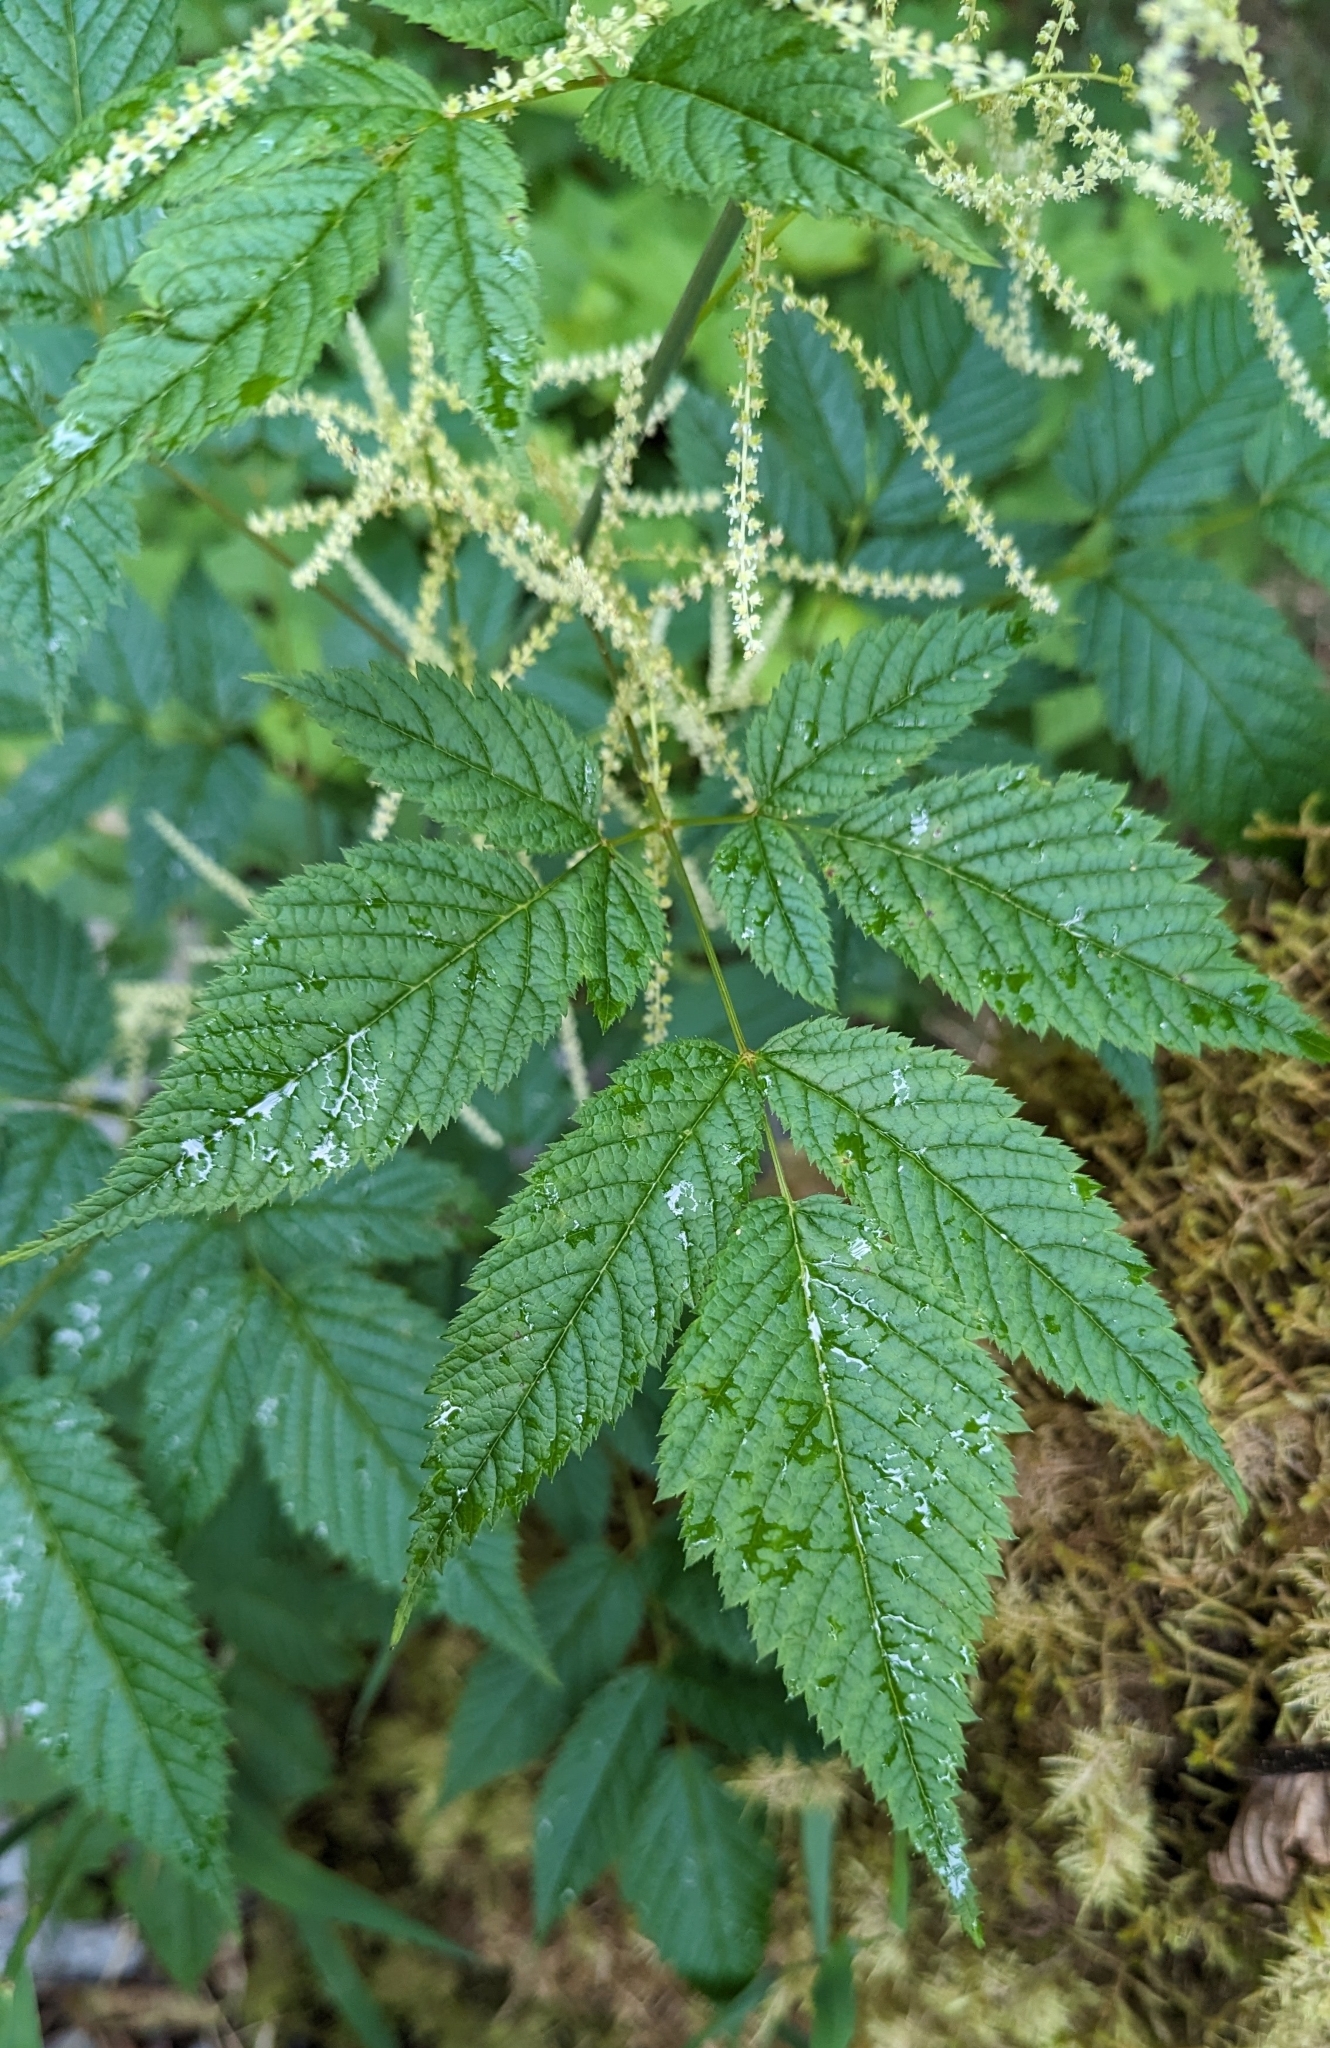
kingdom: Plantae
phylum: Tracheophyta
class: Magnoliopsida
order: Rosales
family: Rosaceae
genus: Aruncus
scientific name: Aruncus dioicus
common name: Buck's-beard
